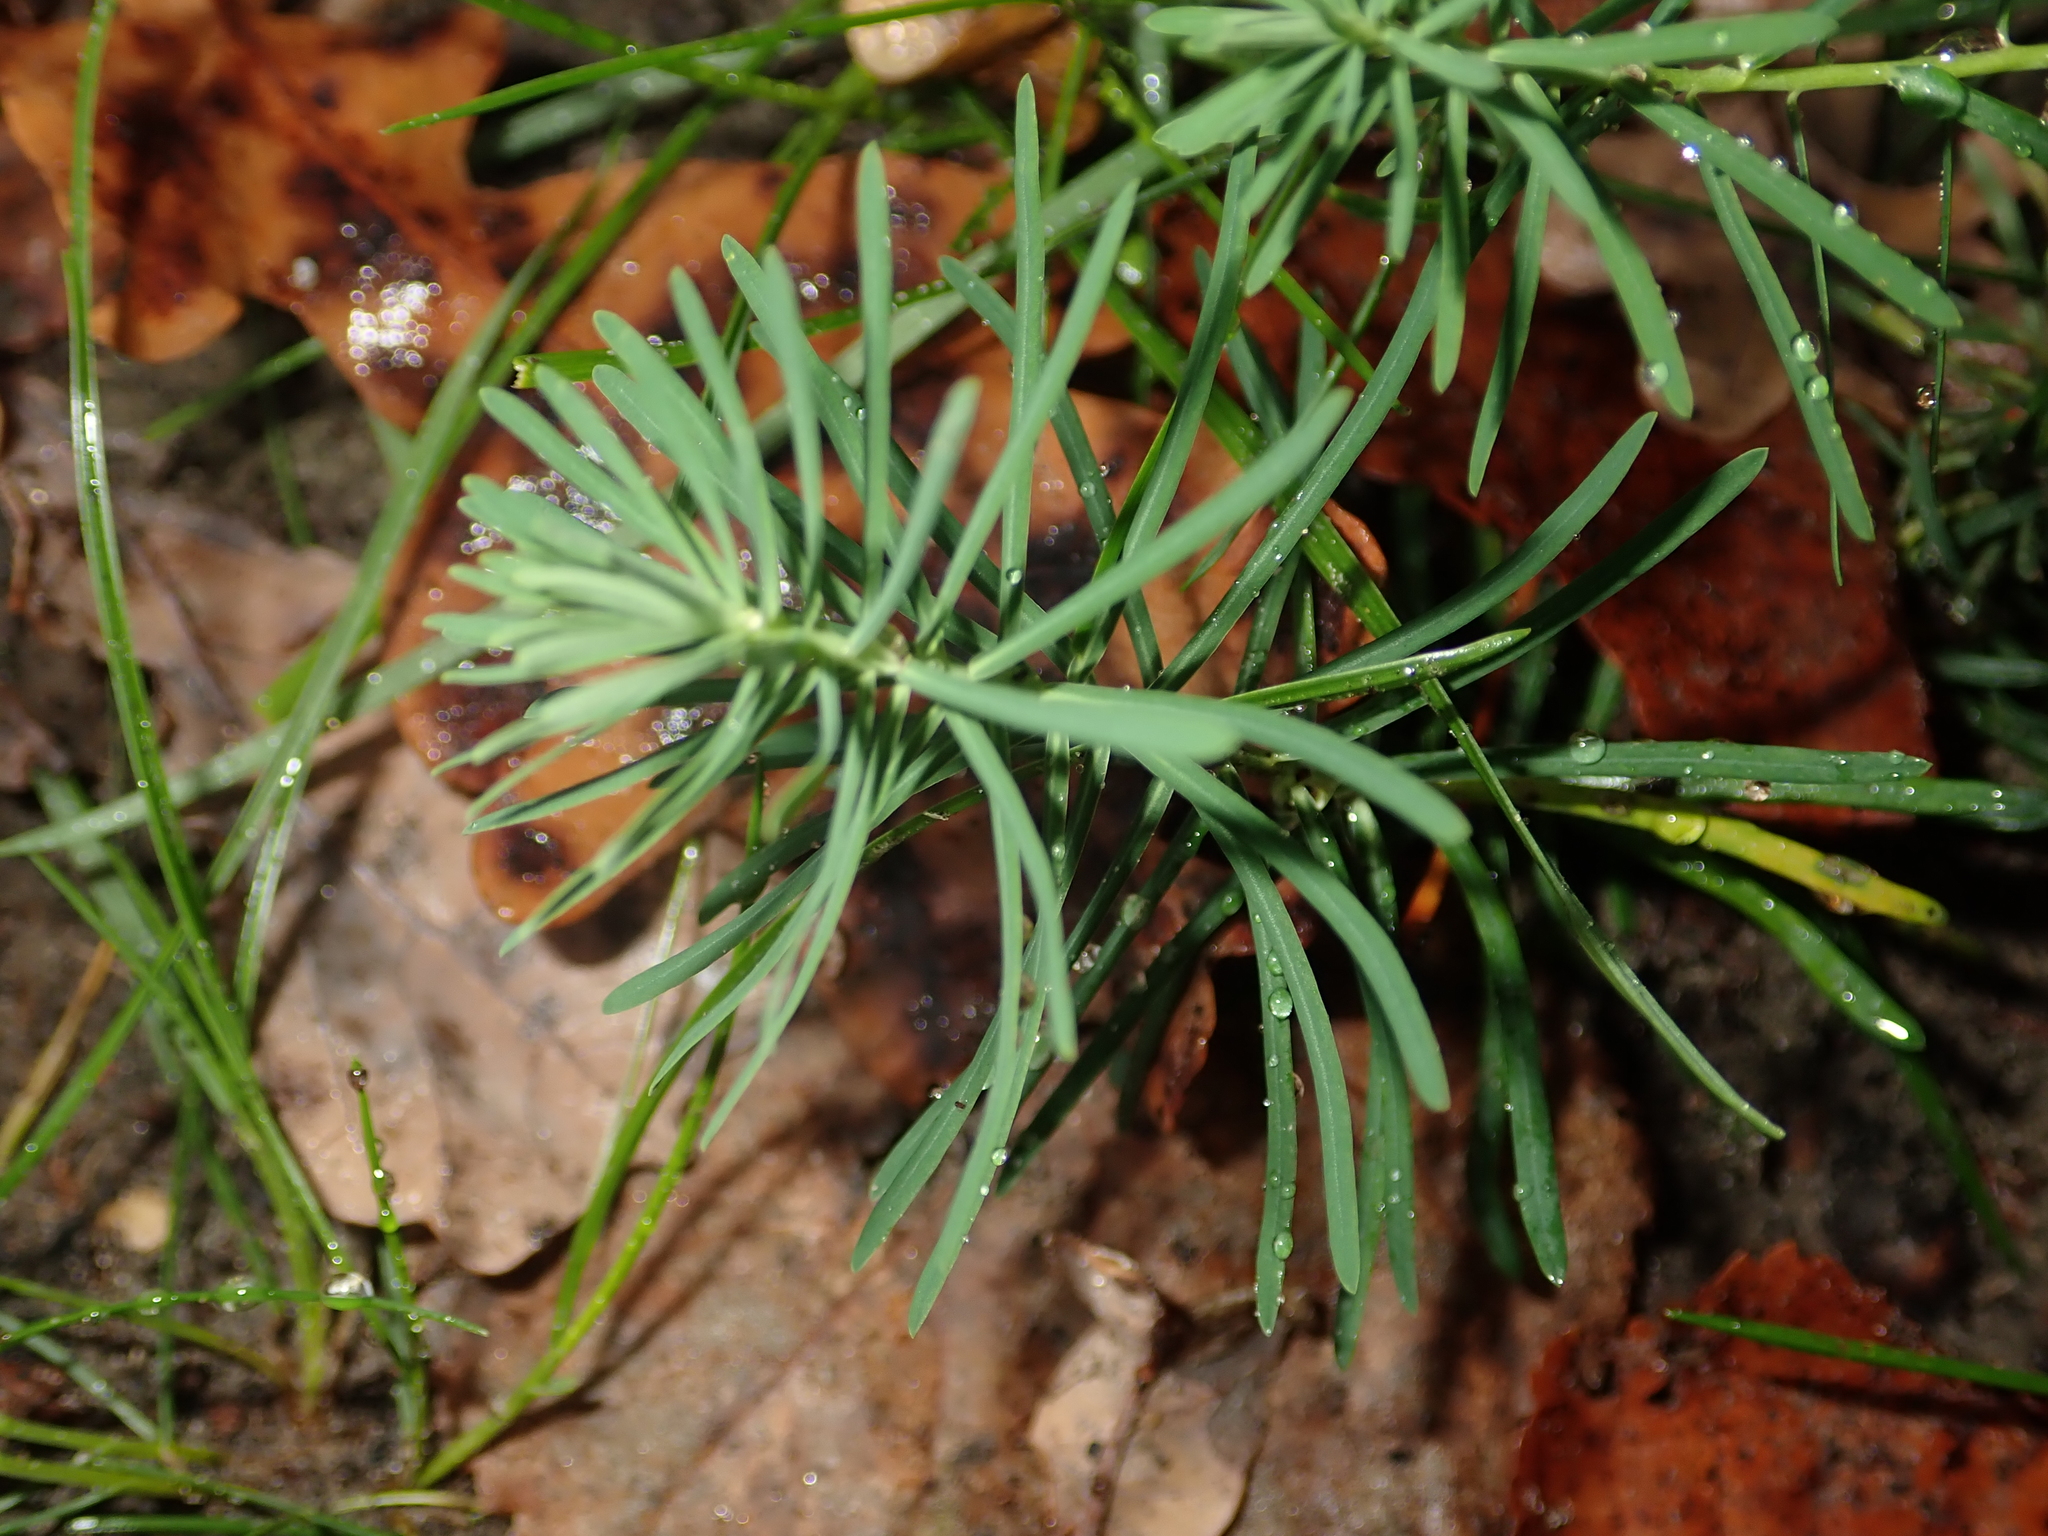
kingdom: Plantae
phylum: Tracheophyta
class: Magnoliopsida
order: Malpighiales
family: Euphorbiaceae
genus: Euphorbia
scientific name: Euphorbia cyparissias
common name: Cypress spurge
